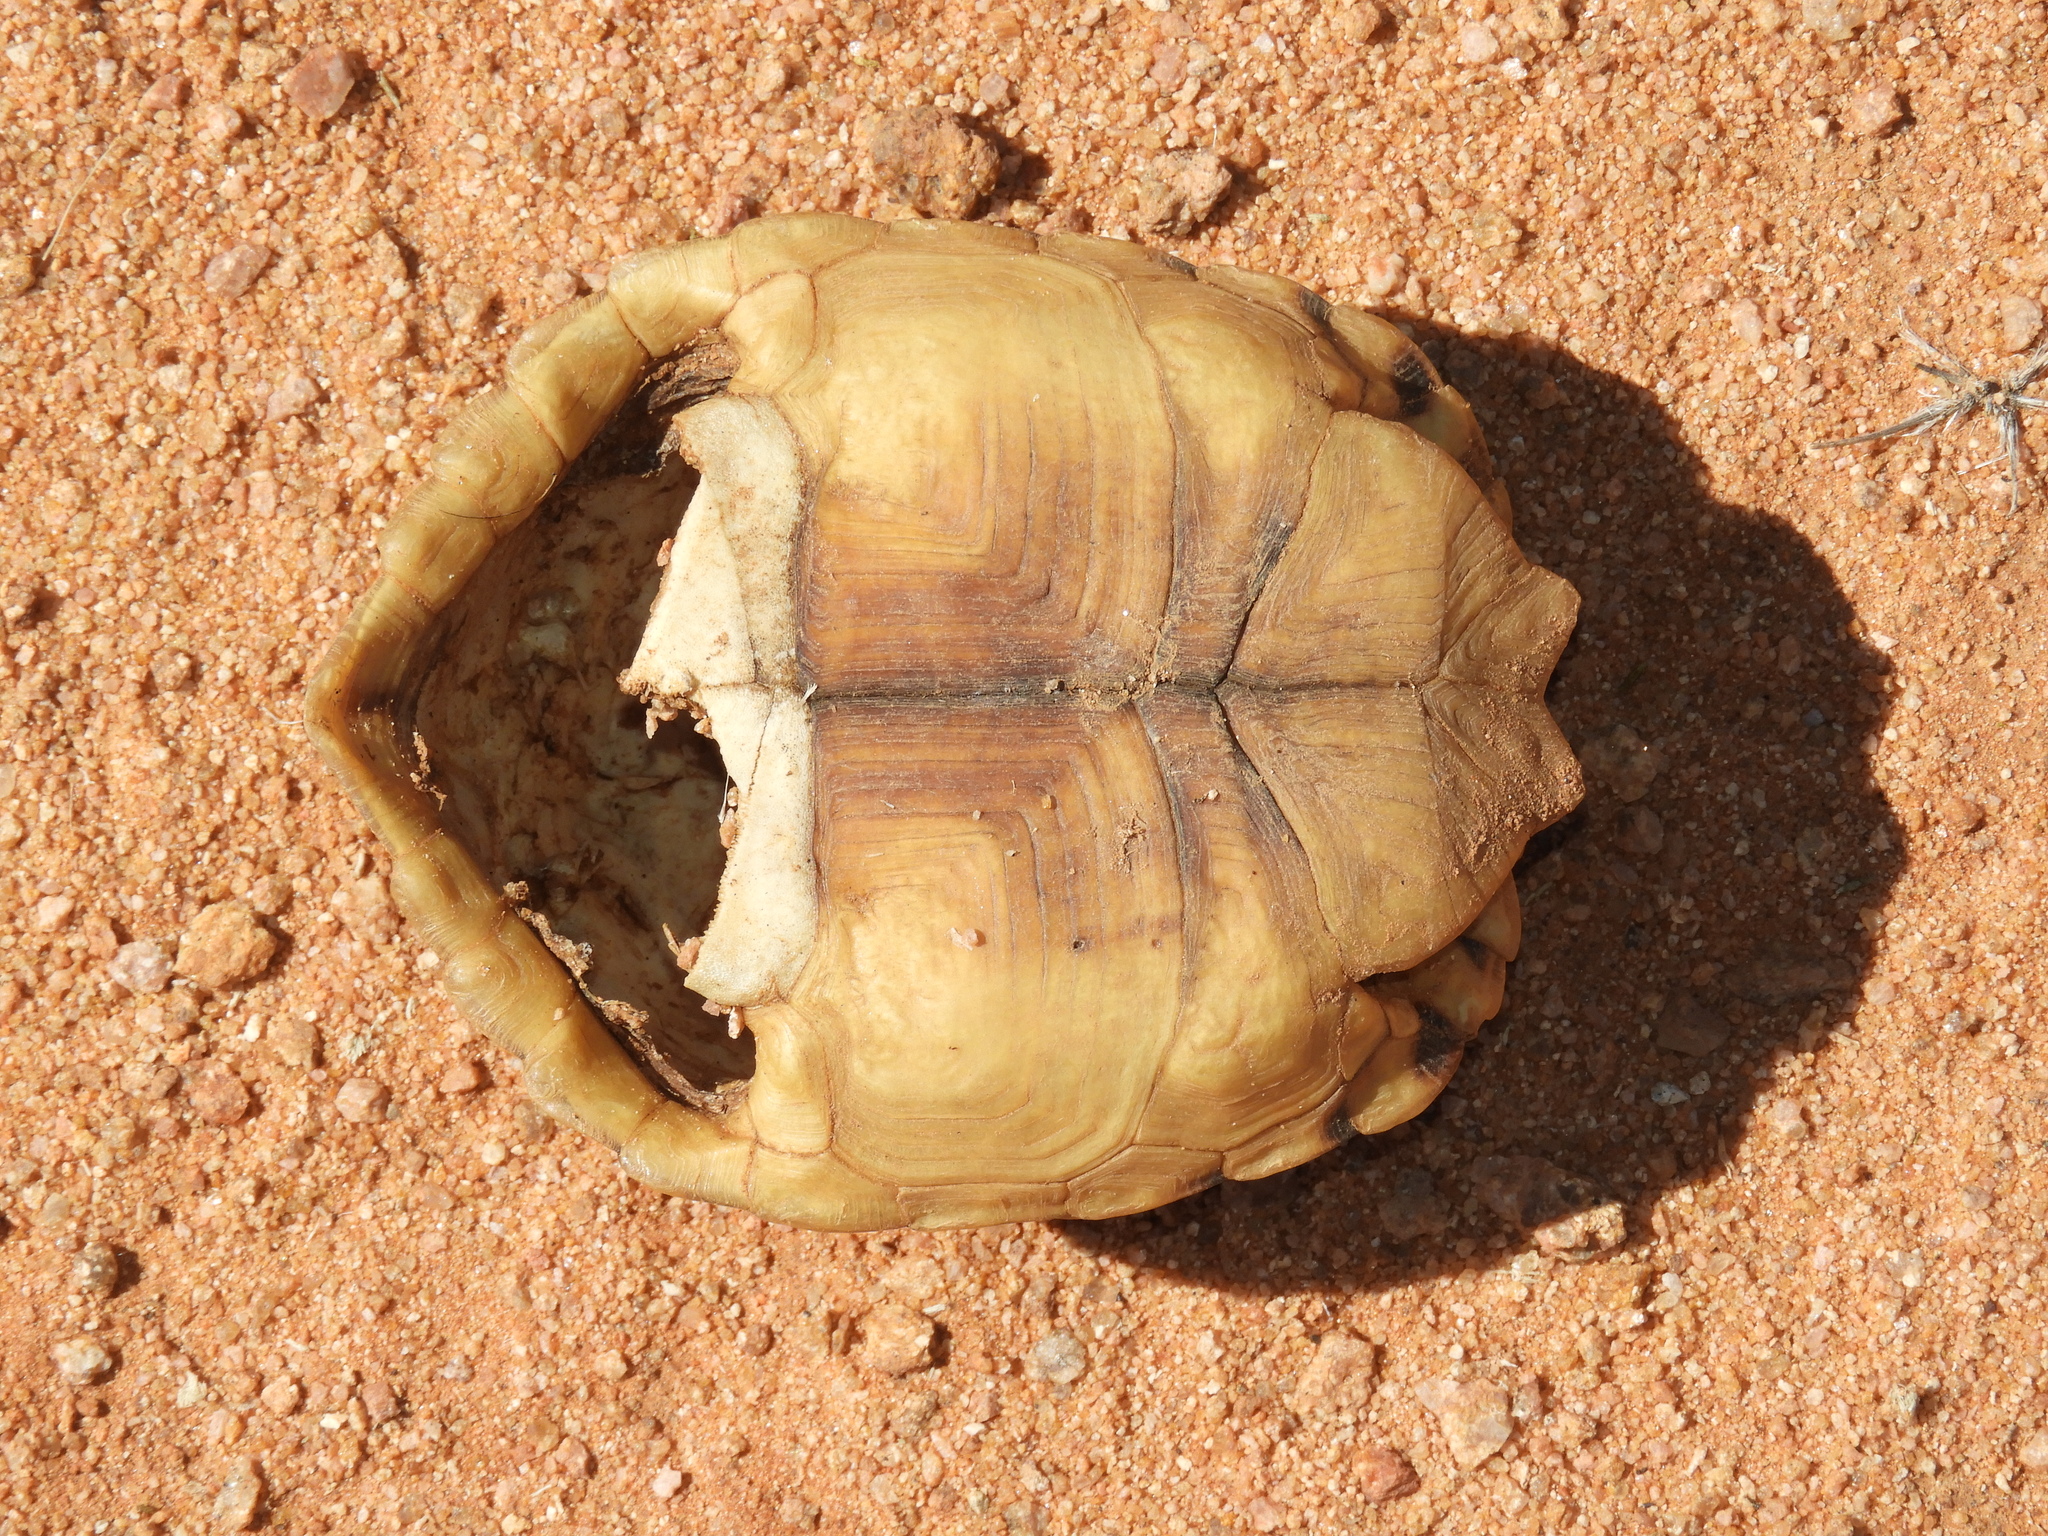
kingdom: Animalia
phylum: Chordata
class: Testudines
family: Testudinidae
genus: Psammobates
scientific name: Psammobates tentorius
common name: Tent tortoise
